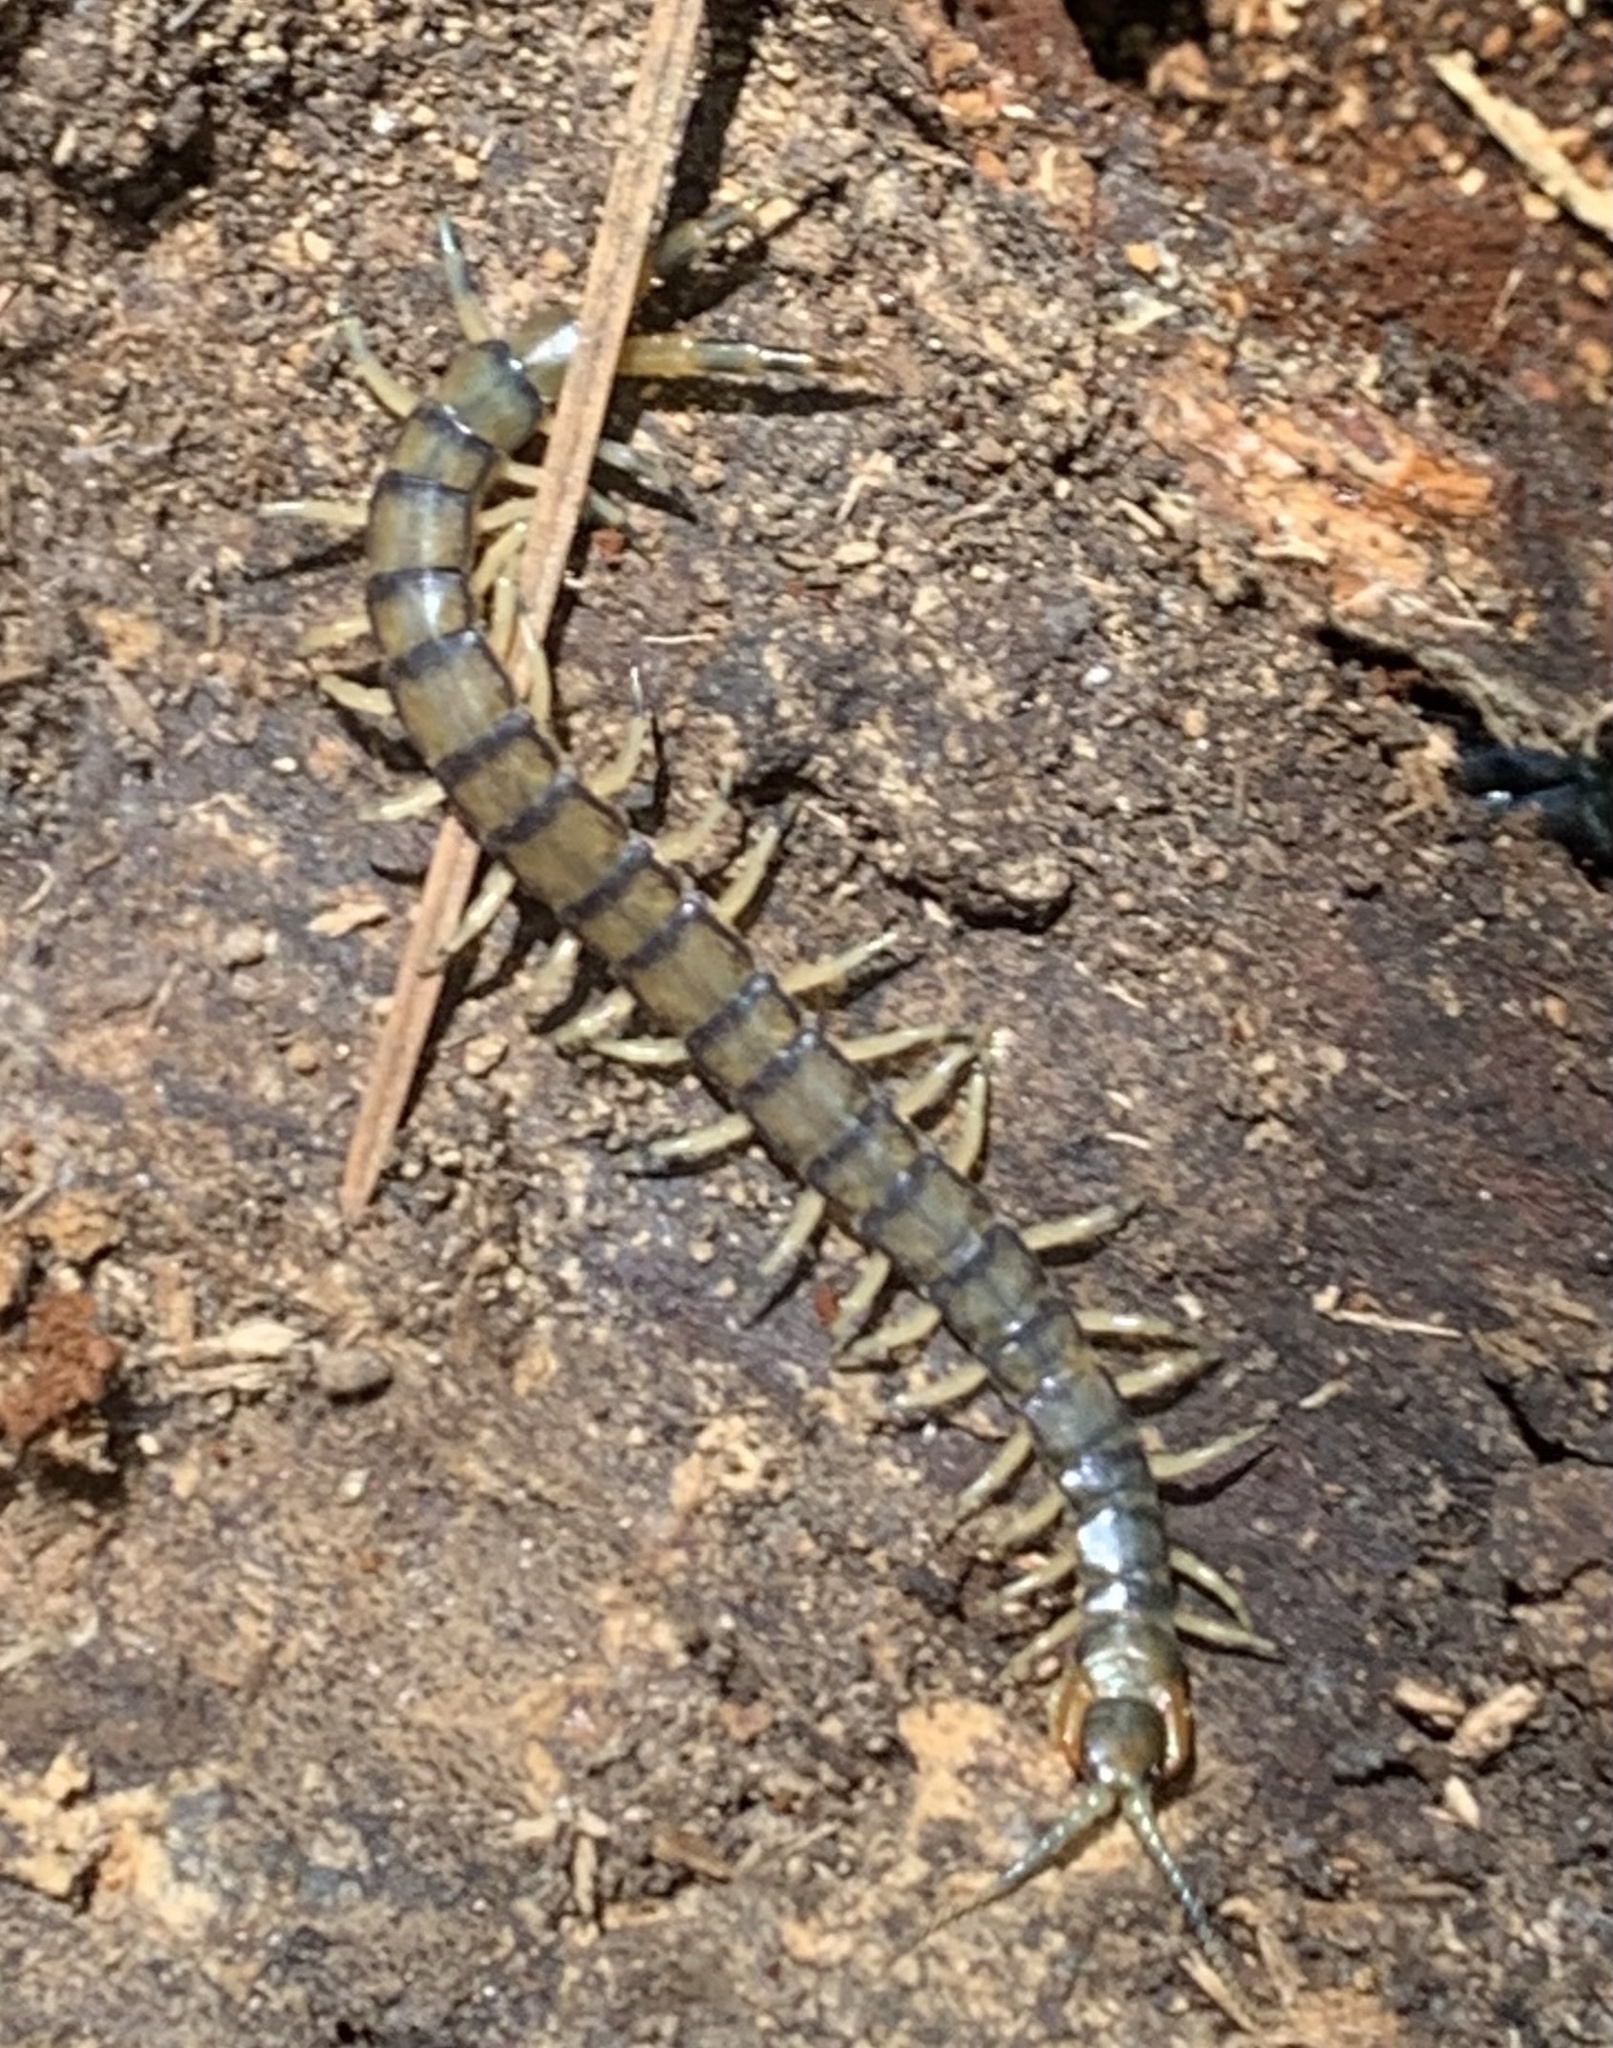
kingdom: Animalia
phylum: Arthropoda
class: Chilopoda
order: Scolopendromorpha
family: Scolopendridae
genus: Hemiscolopendra
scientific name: Hemiscolopendra marginata
